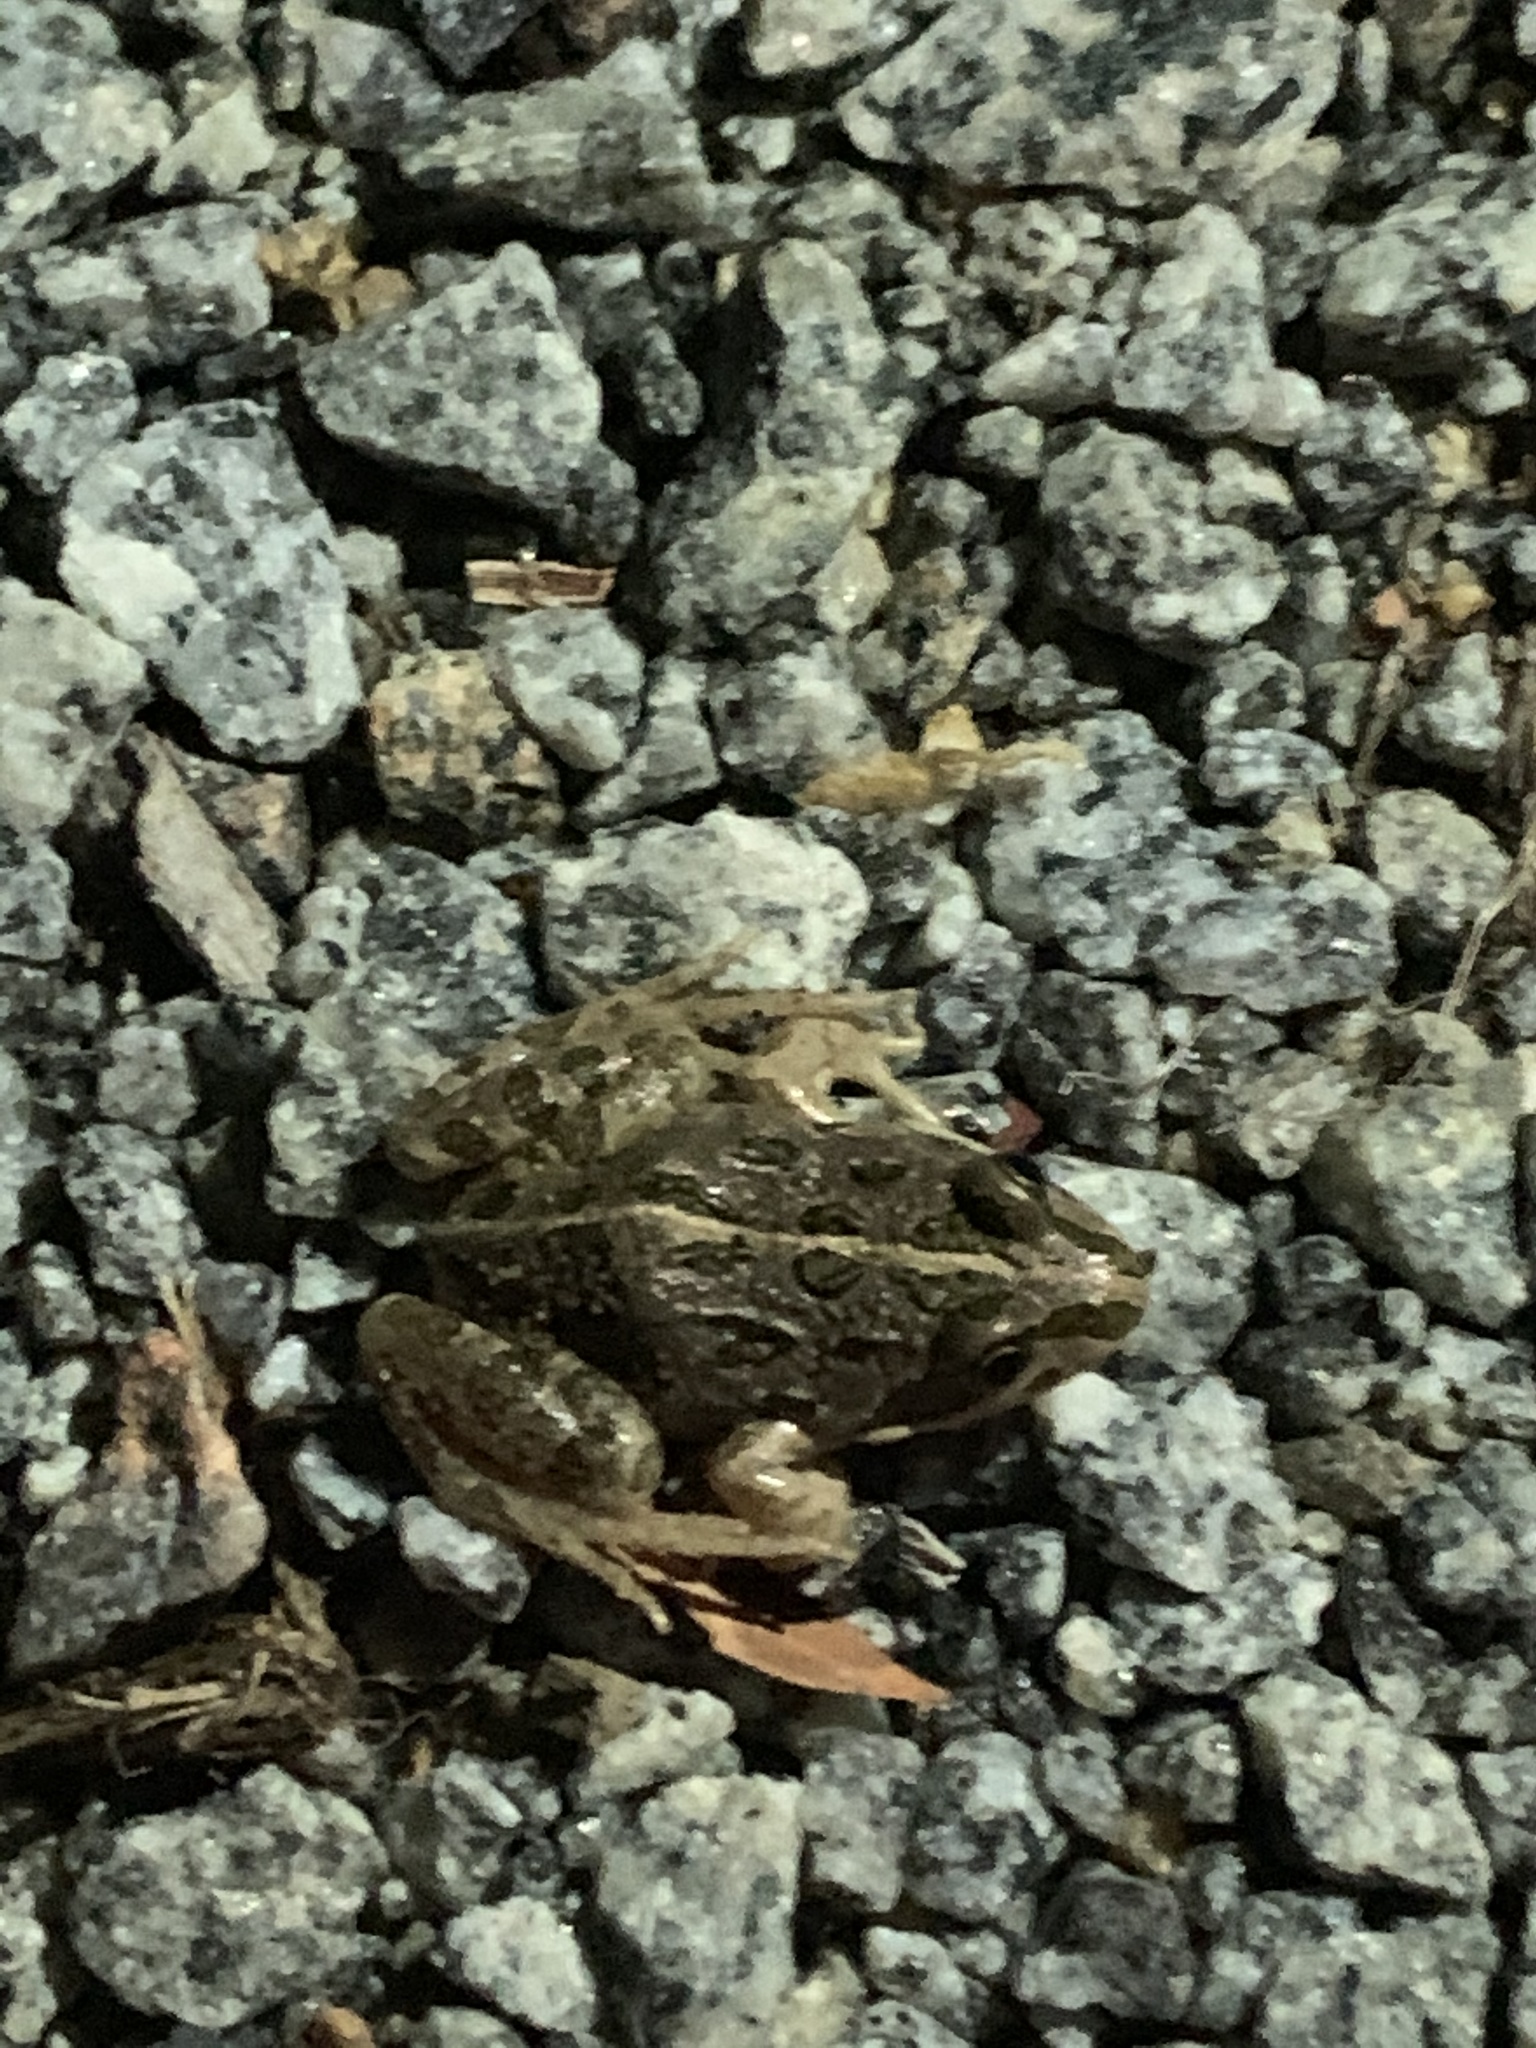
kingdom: Animalia
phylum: Chordata
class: Amphibia
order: Anura
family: Limnodynastidae
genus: Limnodynastes
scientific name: Limnodynastes tasmaniensis
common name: Spotted marsh frog
